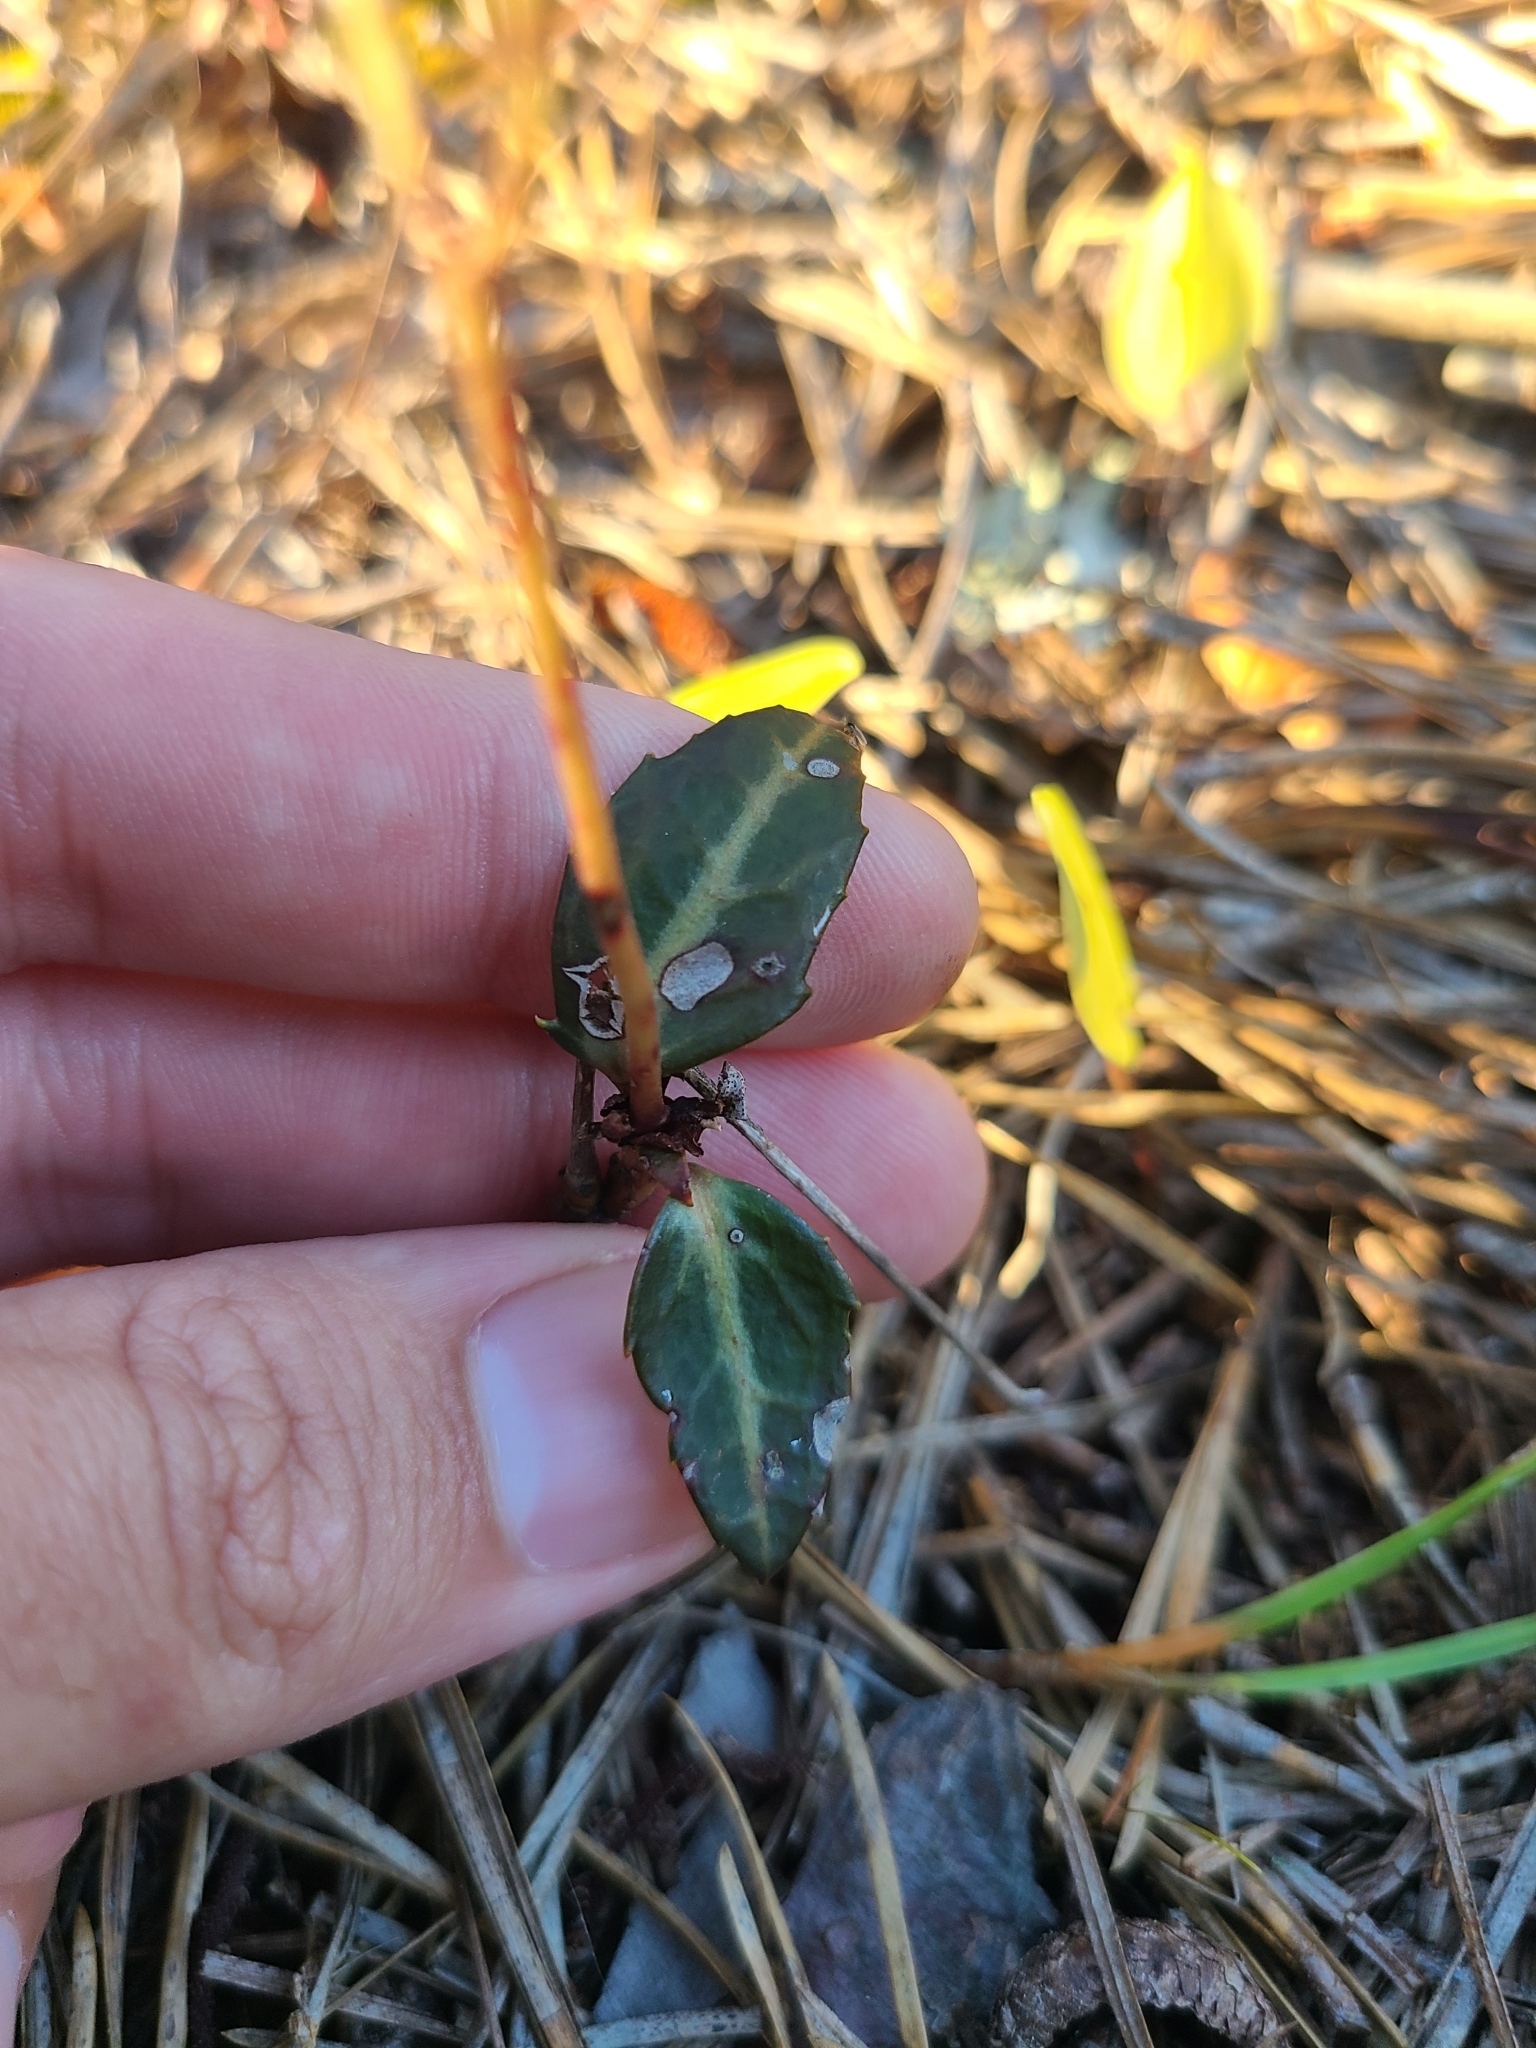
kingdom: Plantae
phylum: Tracheophyta
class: Magnoliopsida
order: Ericales
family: Ericaceae
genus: Chimaphila
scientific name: Chimaphila maculata
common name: Spotted pipsissewa
